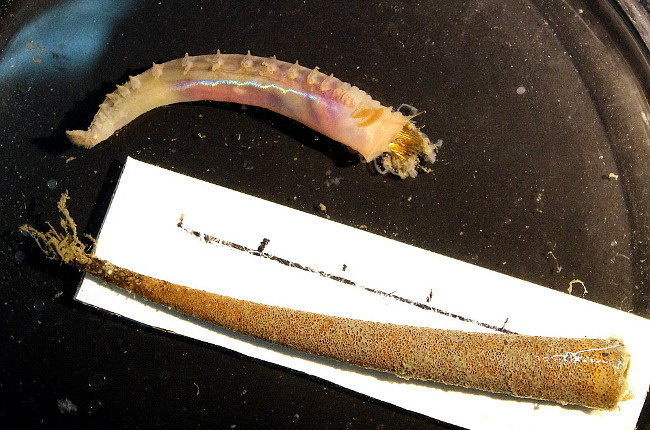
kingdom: Animalia
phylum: Annelida
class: Polychaeta
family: Pectinariidae
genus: Cistenides
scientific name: Cistenides hyperborea
